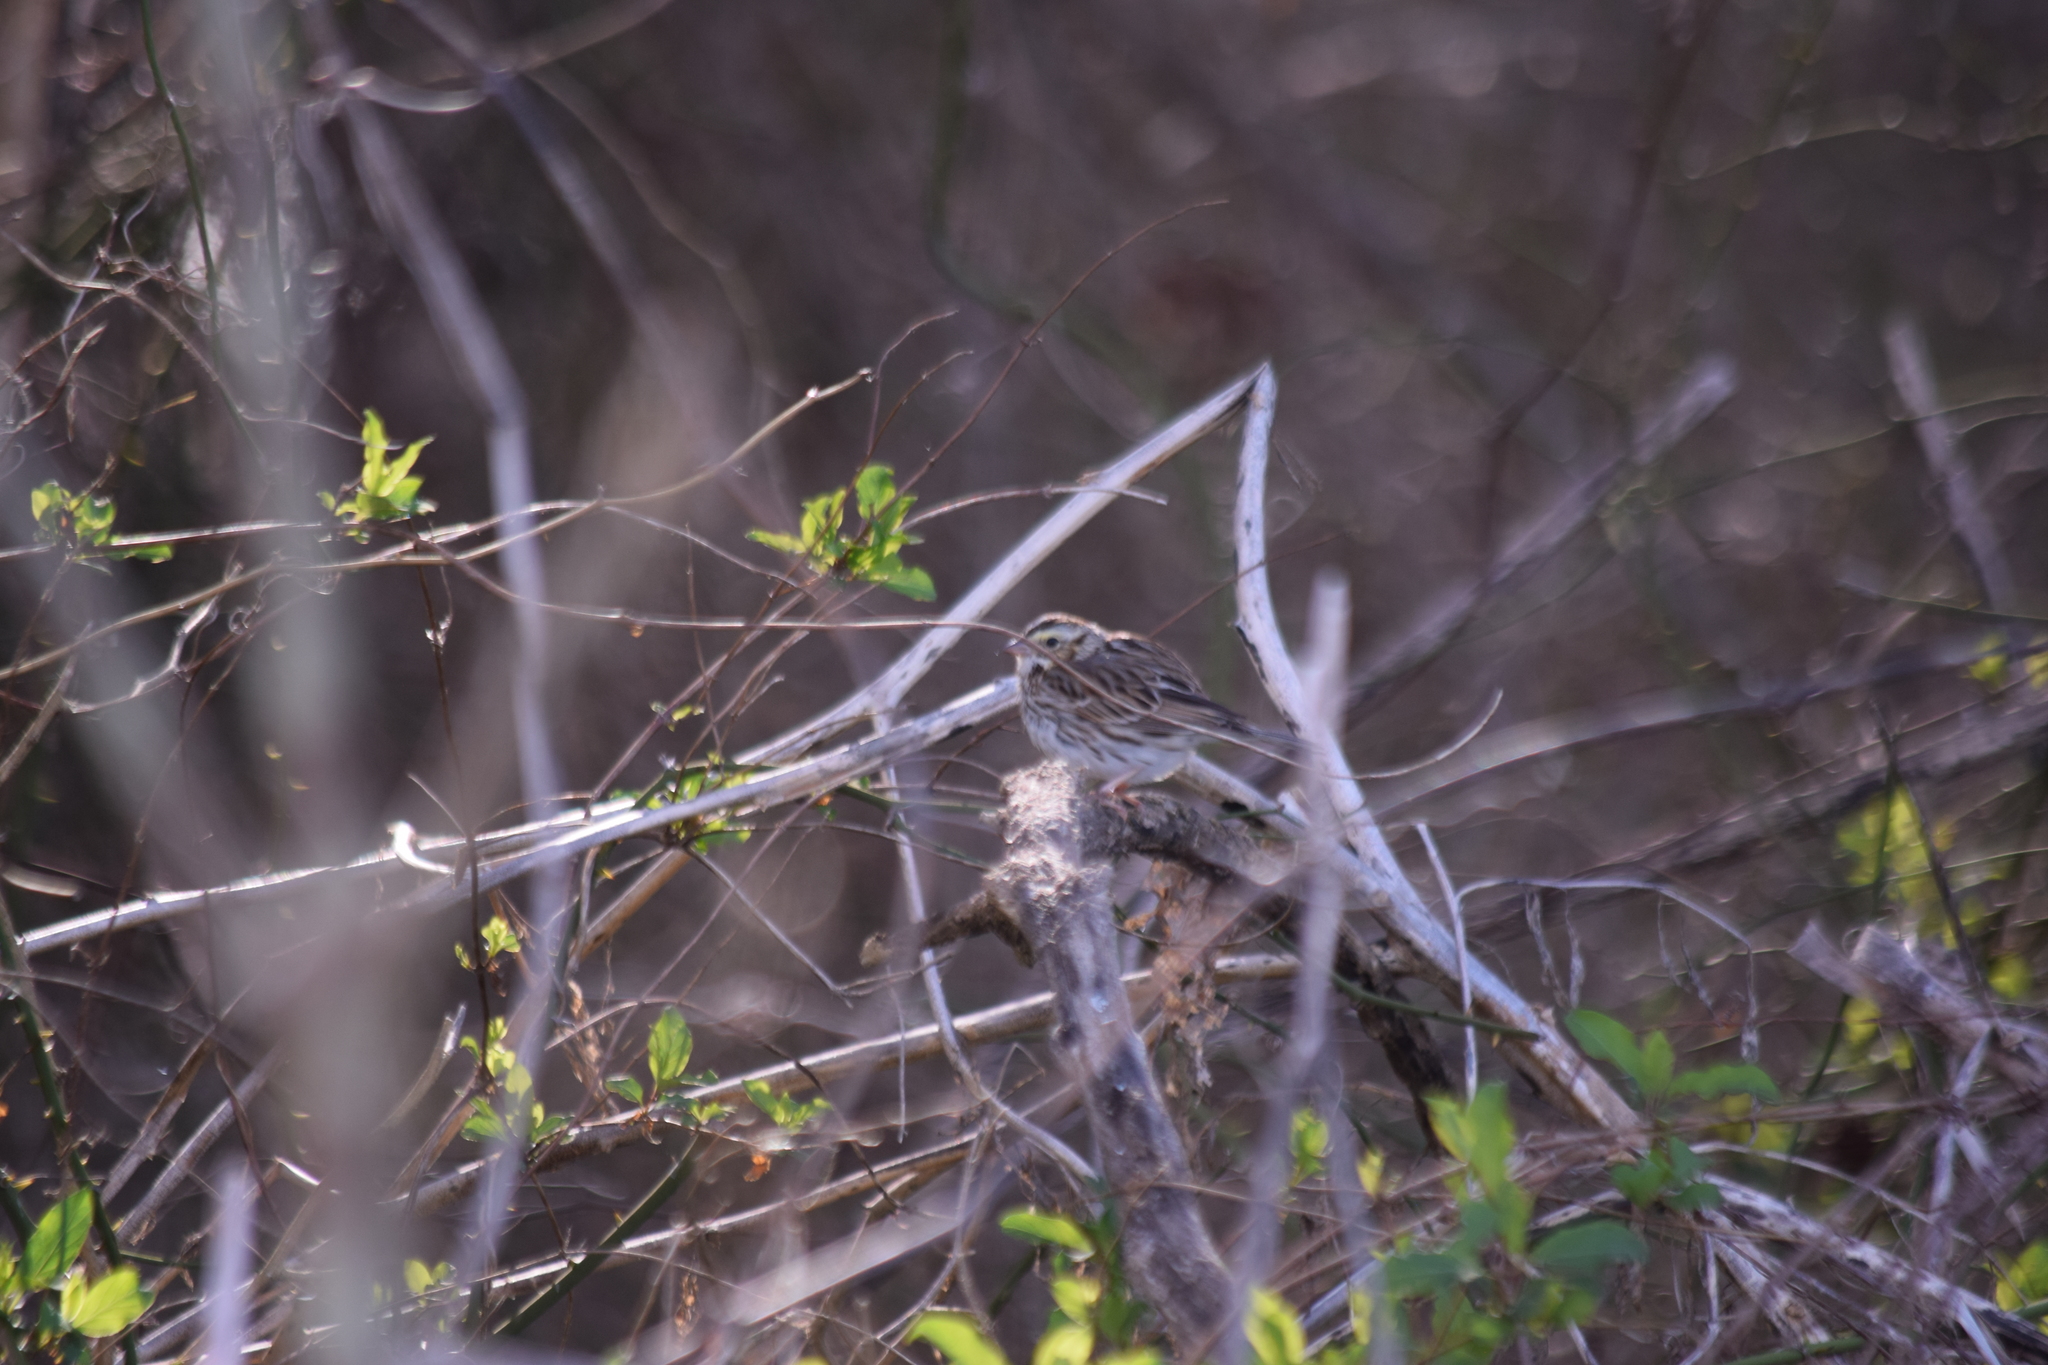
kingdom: Animalia
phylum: Chordata
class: Aves
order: Passeriformes
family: Passerellidae
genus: Passerculus
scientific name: Passerculus sandwichensis
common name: Savannah sparrow
